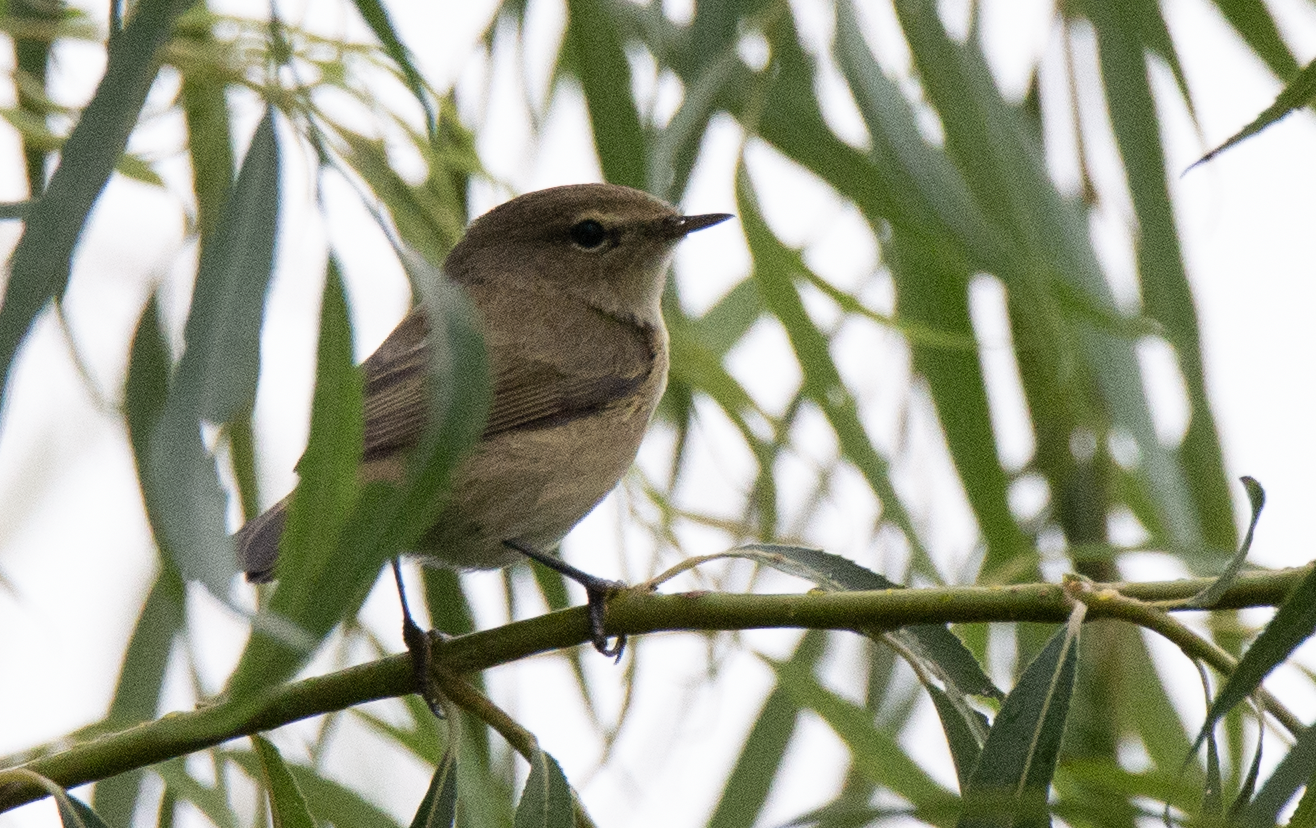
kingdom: Animalia
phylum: Chordata
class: Aves
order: Passeriformes
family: Phylloscopidae
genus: Phylloscopus
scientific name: Phylloscopus collybita
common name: Common chiffchaff
